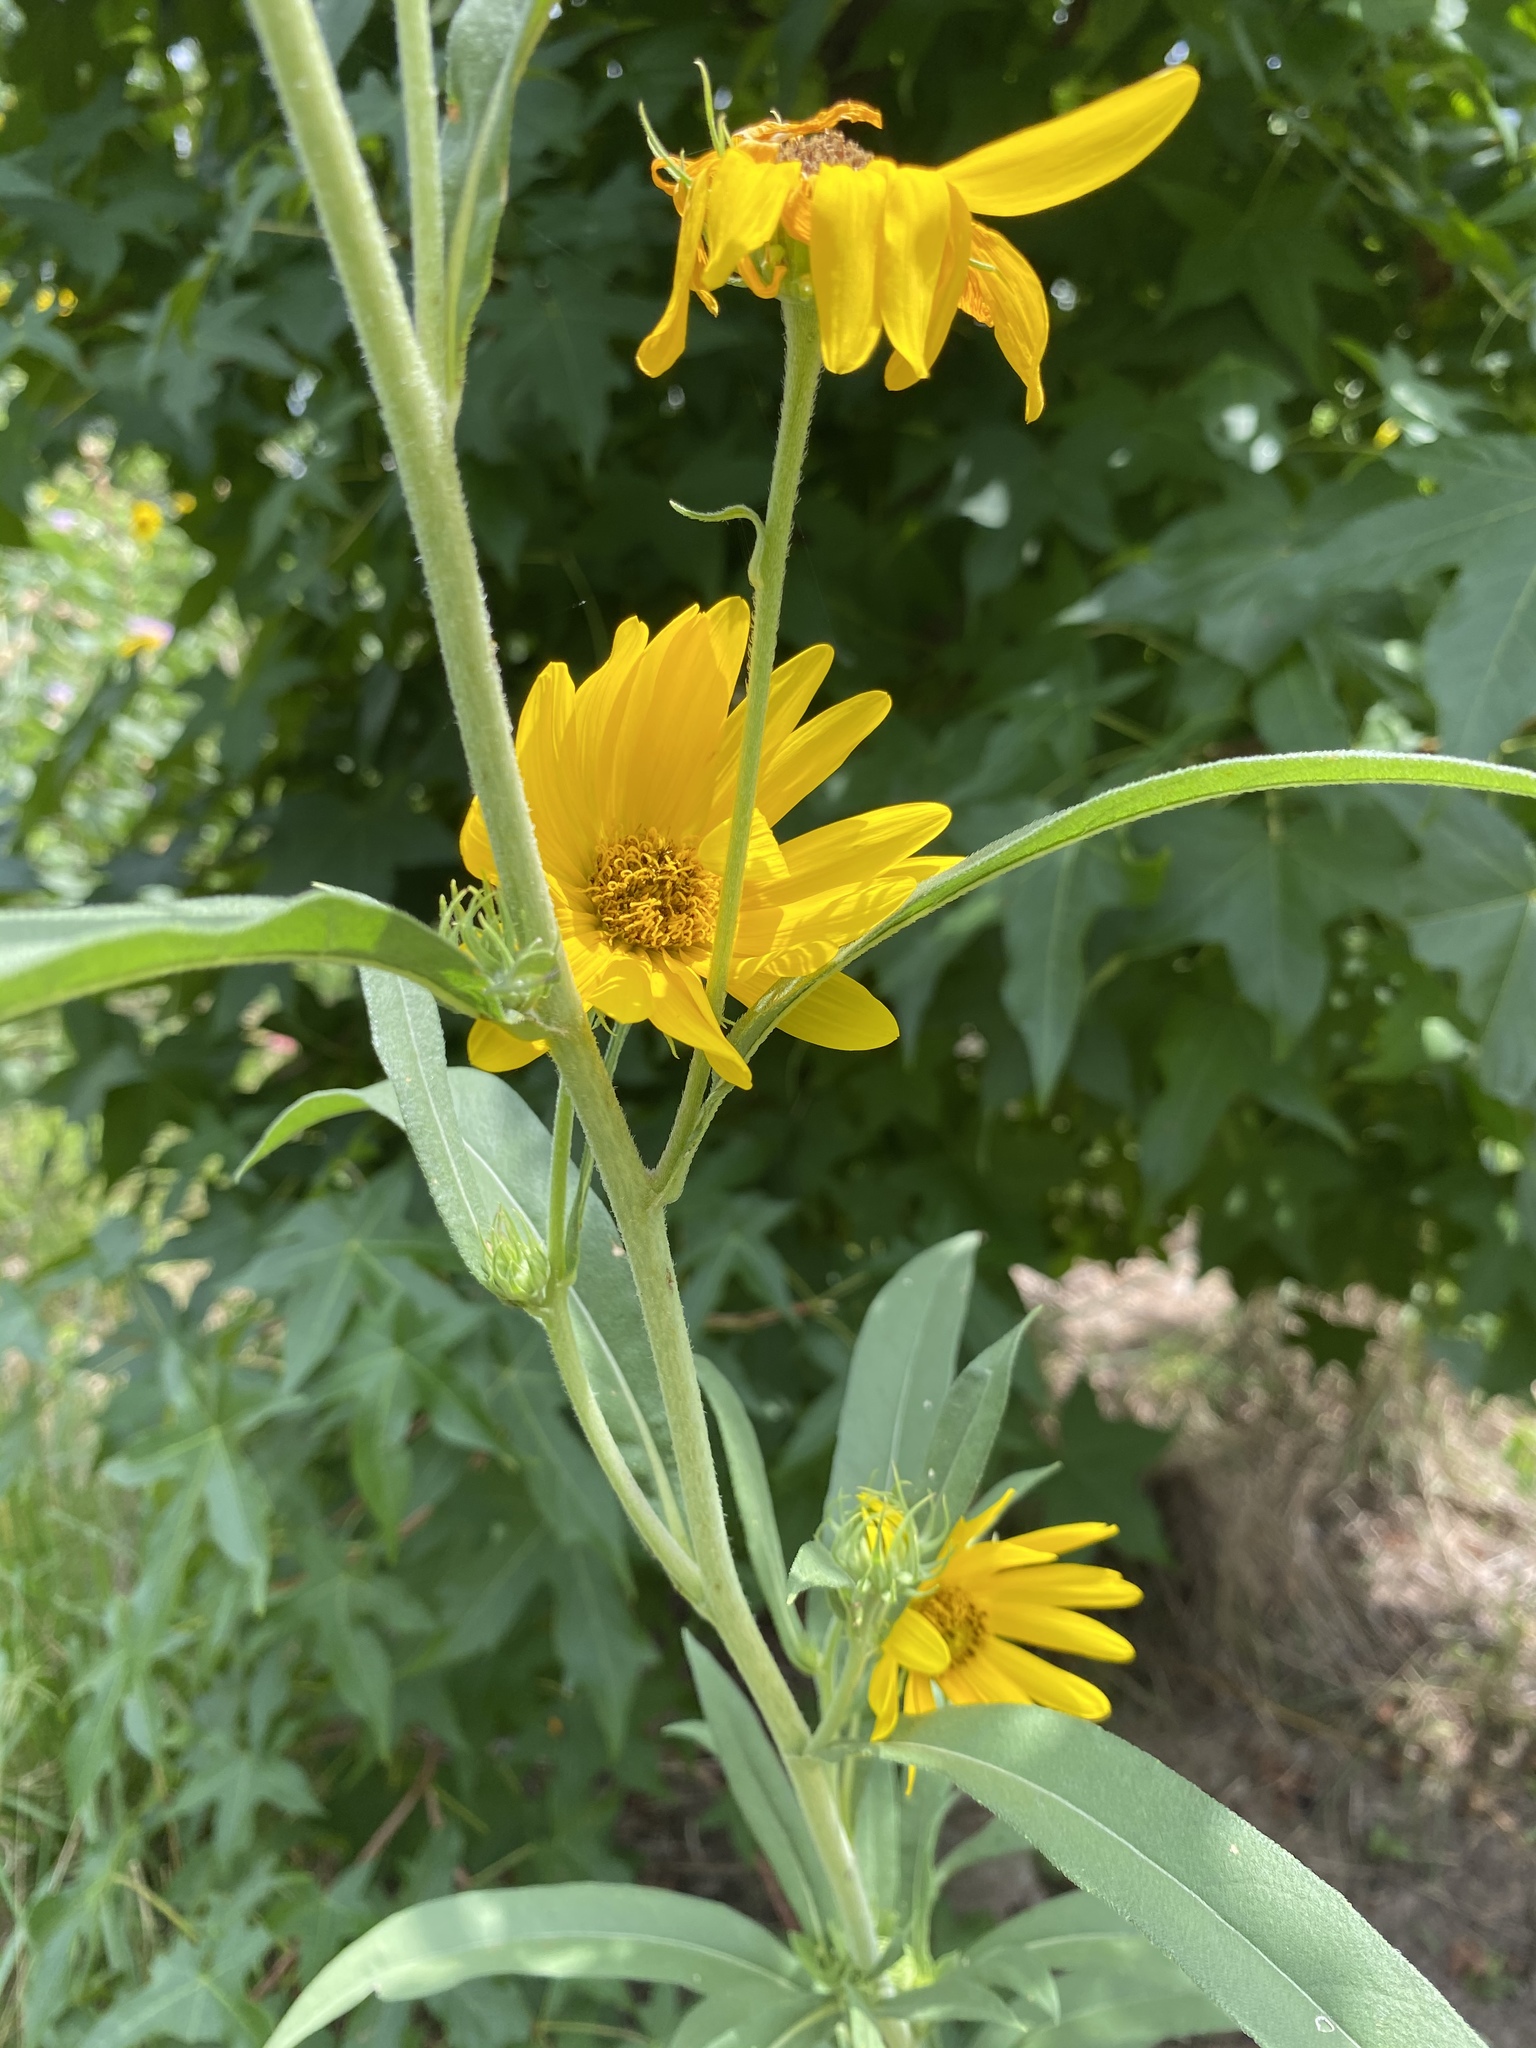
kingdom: Plantae
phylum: Tracheophyta
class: Magnoliopsida
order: Asterales
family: Asteraceae
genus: Helianthus
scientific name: Helianthus maximiliani
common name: Maximilian's sunflower
